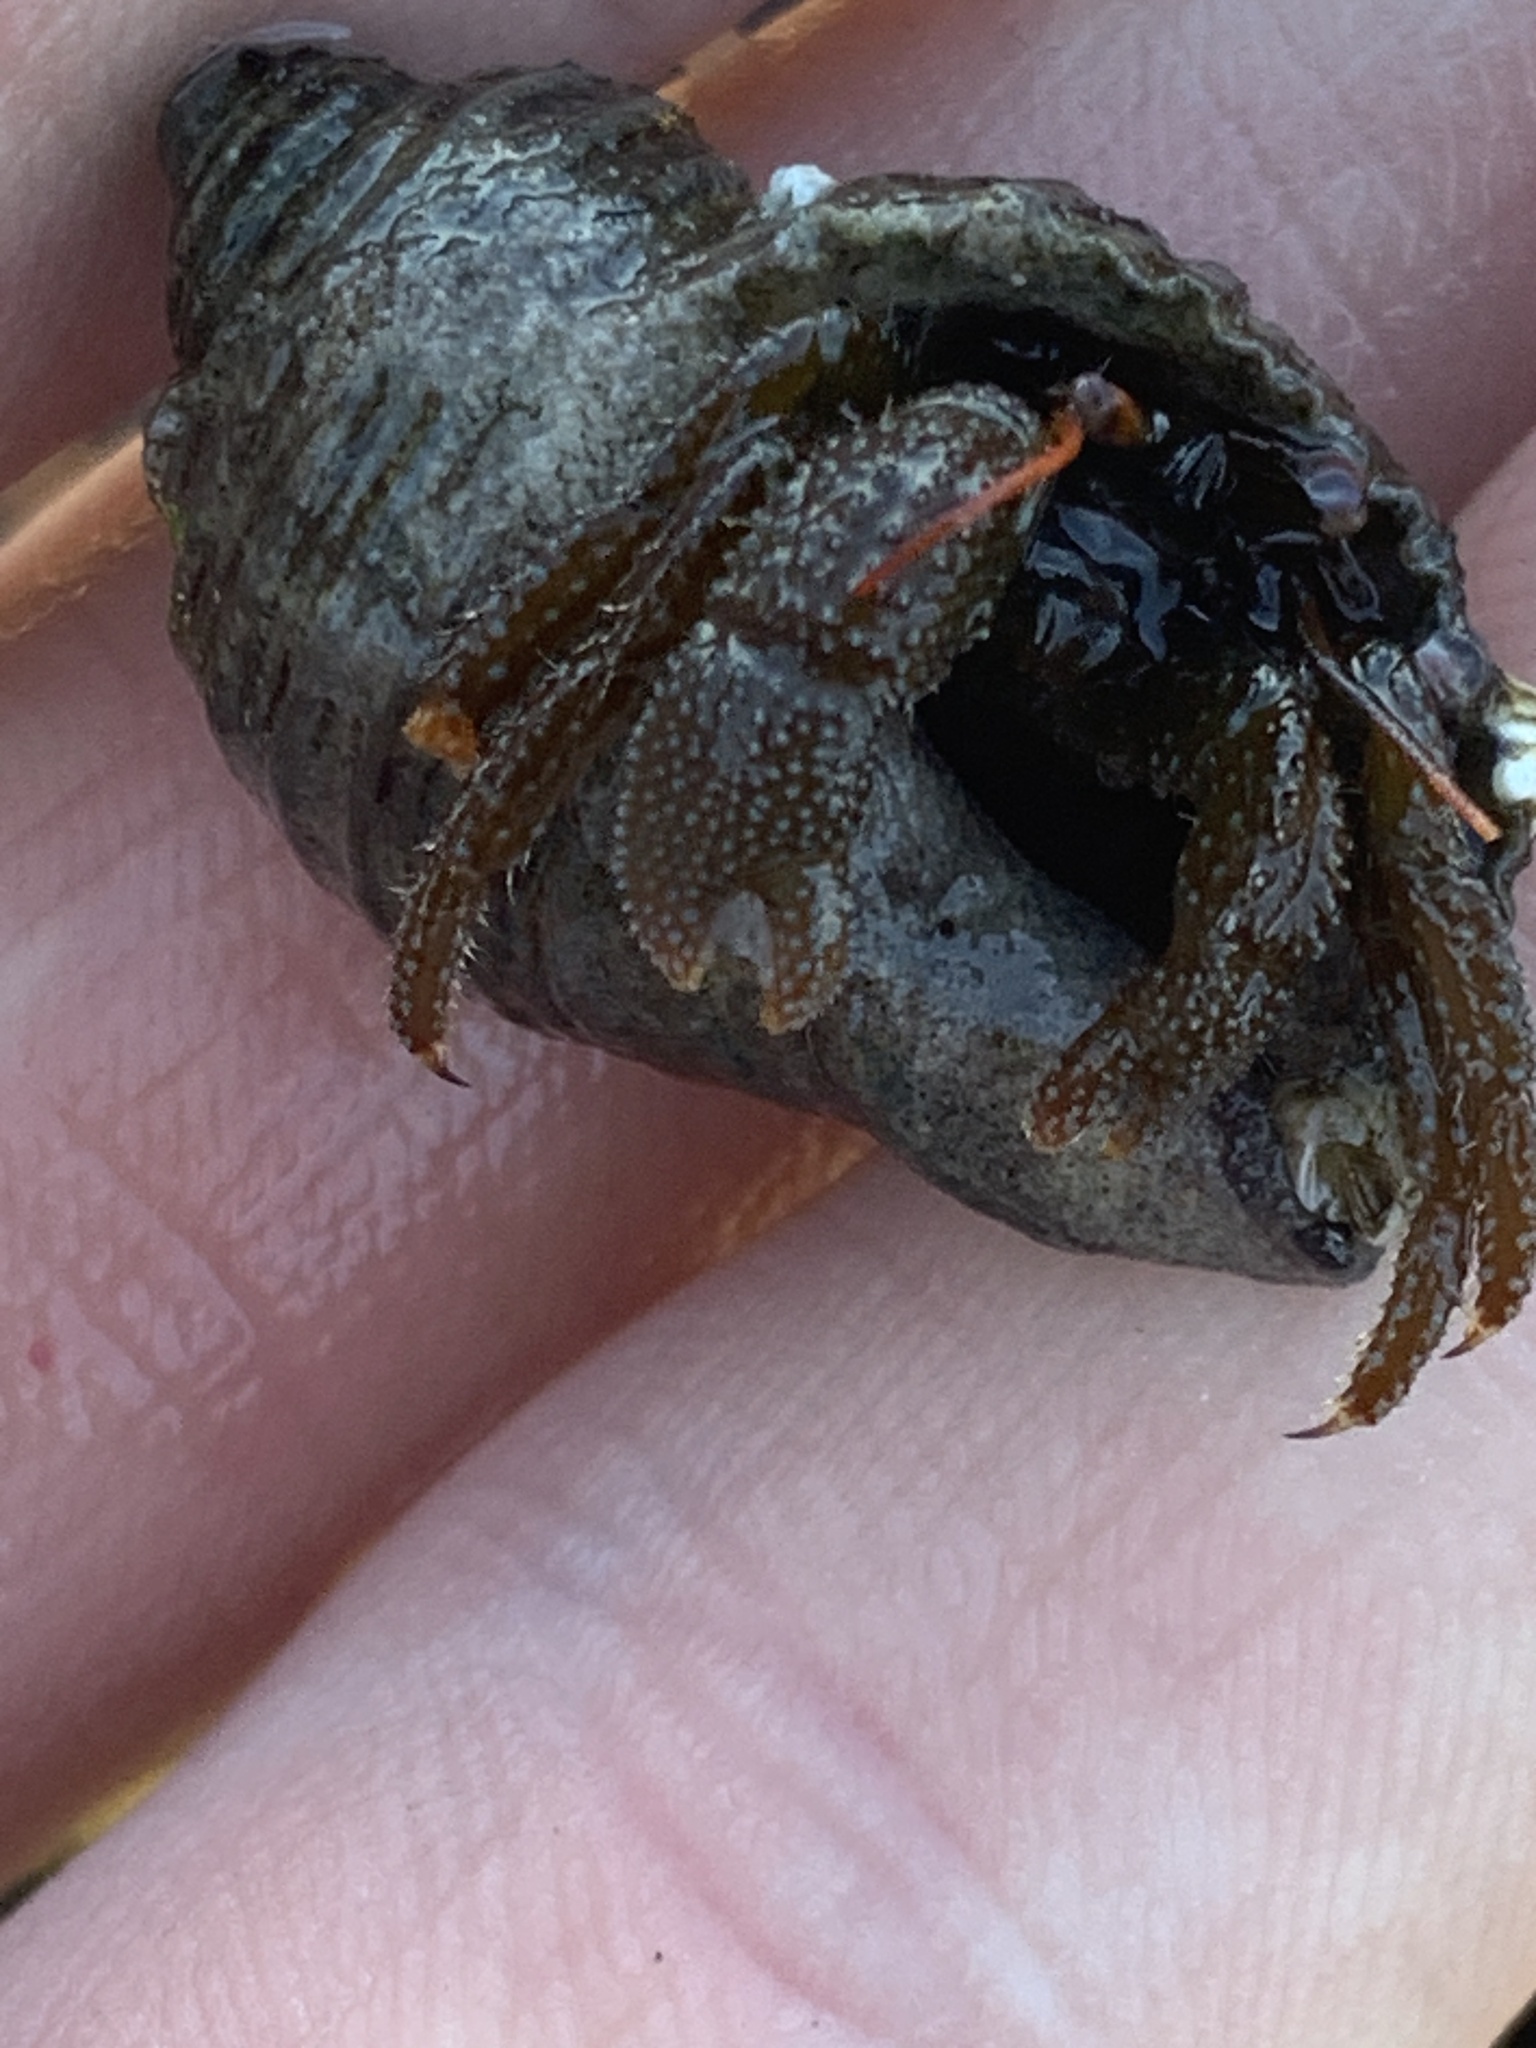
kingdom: Animalia
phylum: Arthropoda
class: Malacostraca
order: Decapoda
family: Paguridae
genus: Pagurus
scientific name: Pagurus granosimanus
